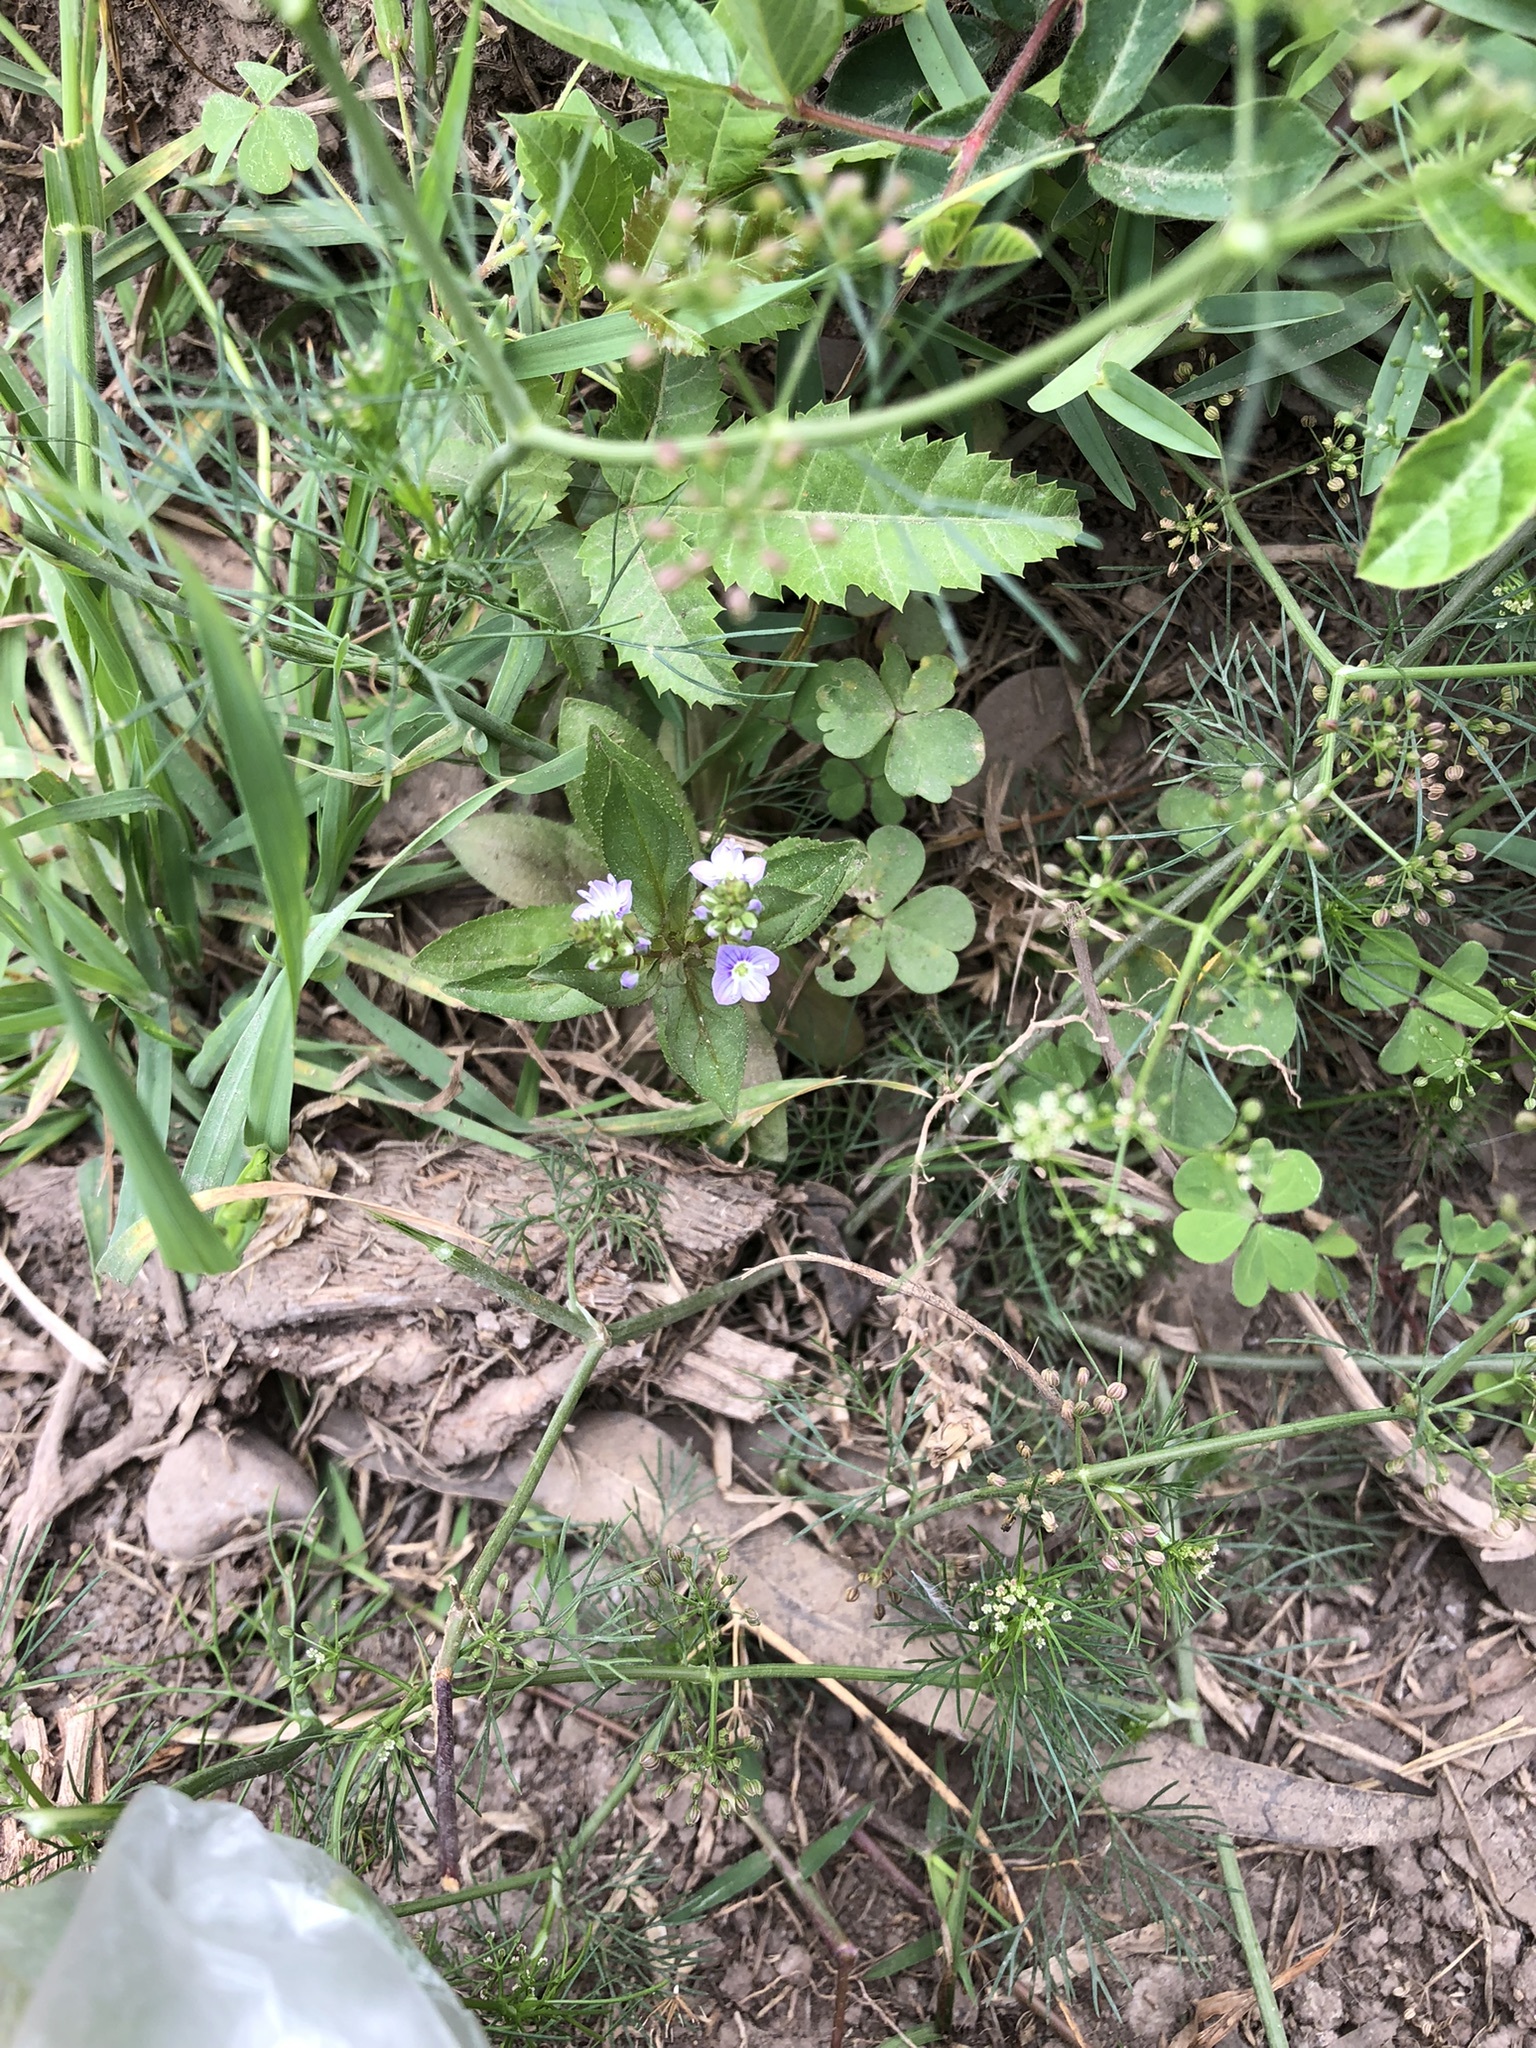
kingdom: Plantae
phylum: Tracheophyta
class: Magnoliopsida
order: Lamiales
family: Plantaginaceae
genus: Veronica
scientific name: Veronica anagallis-aquatica
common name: Water speedwell
